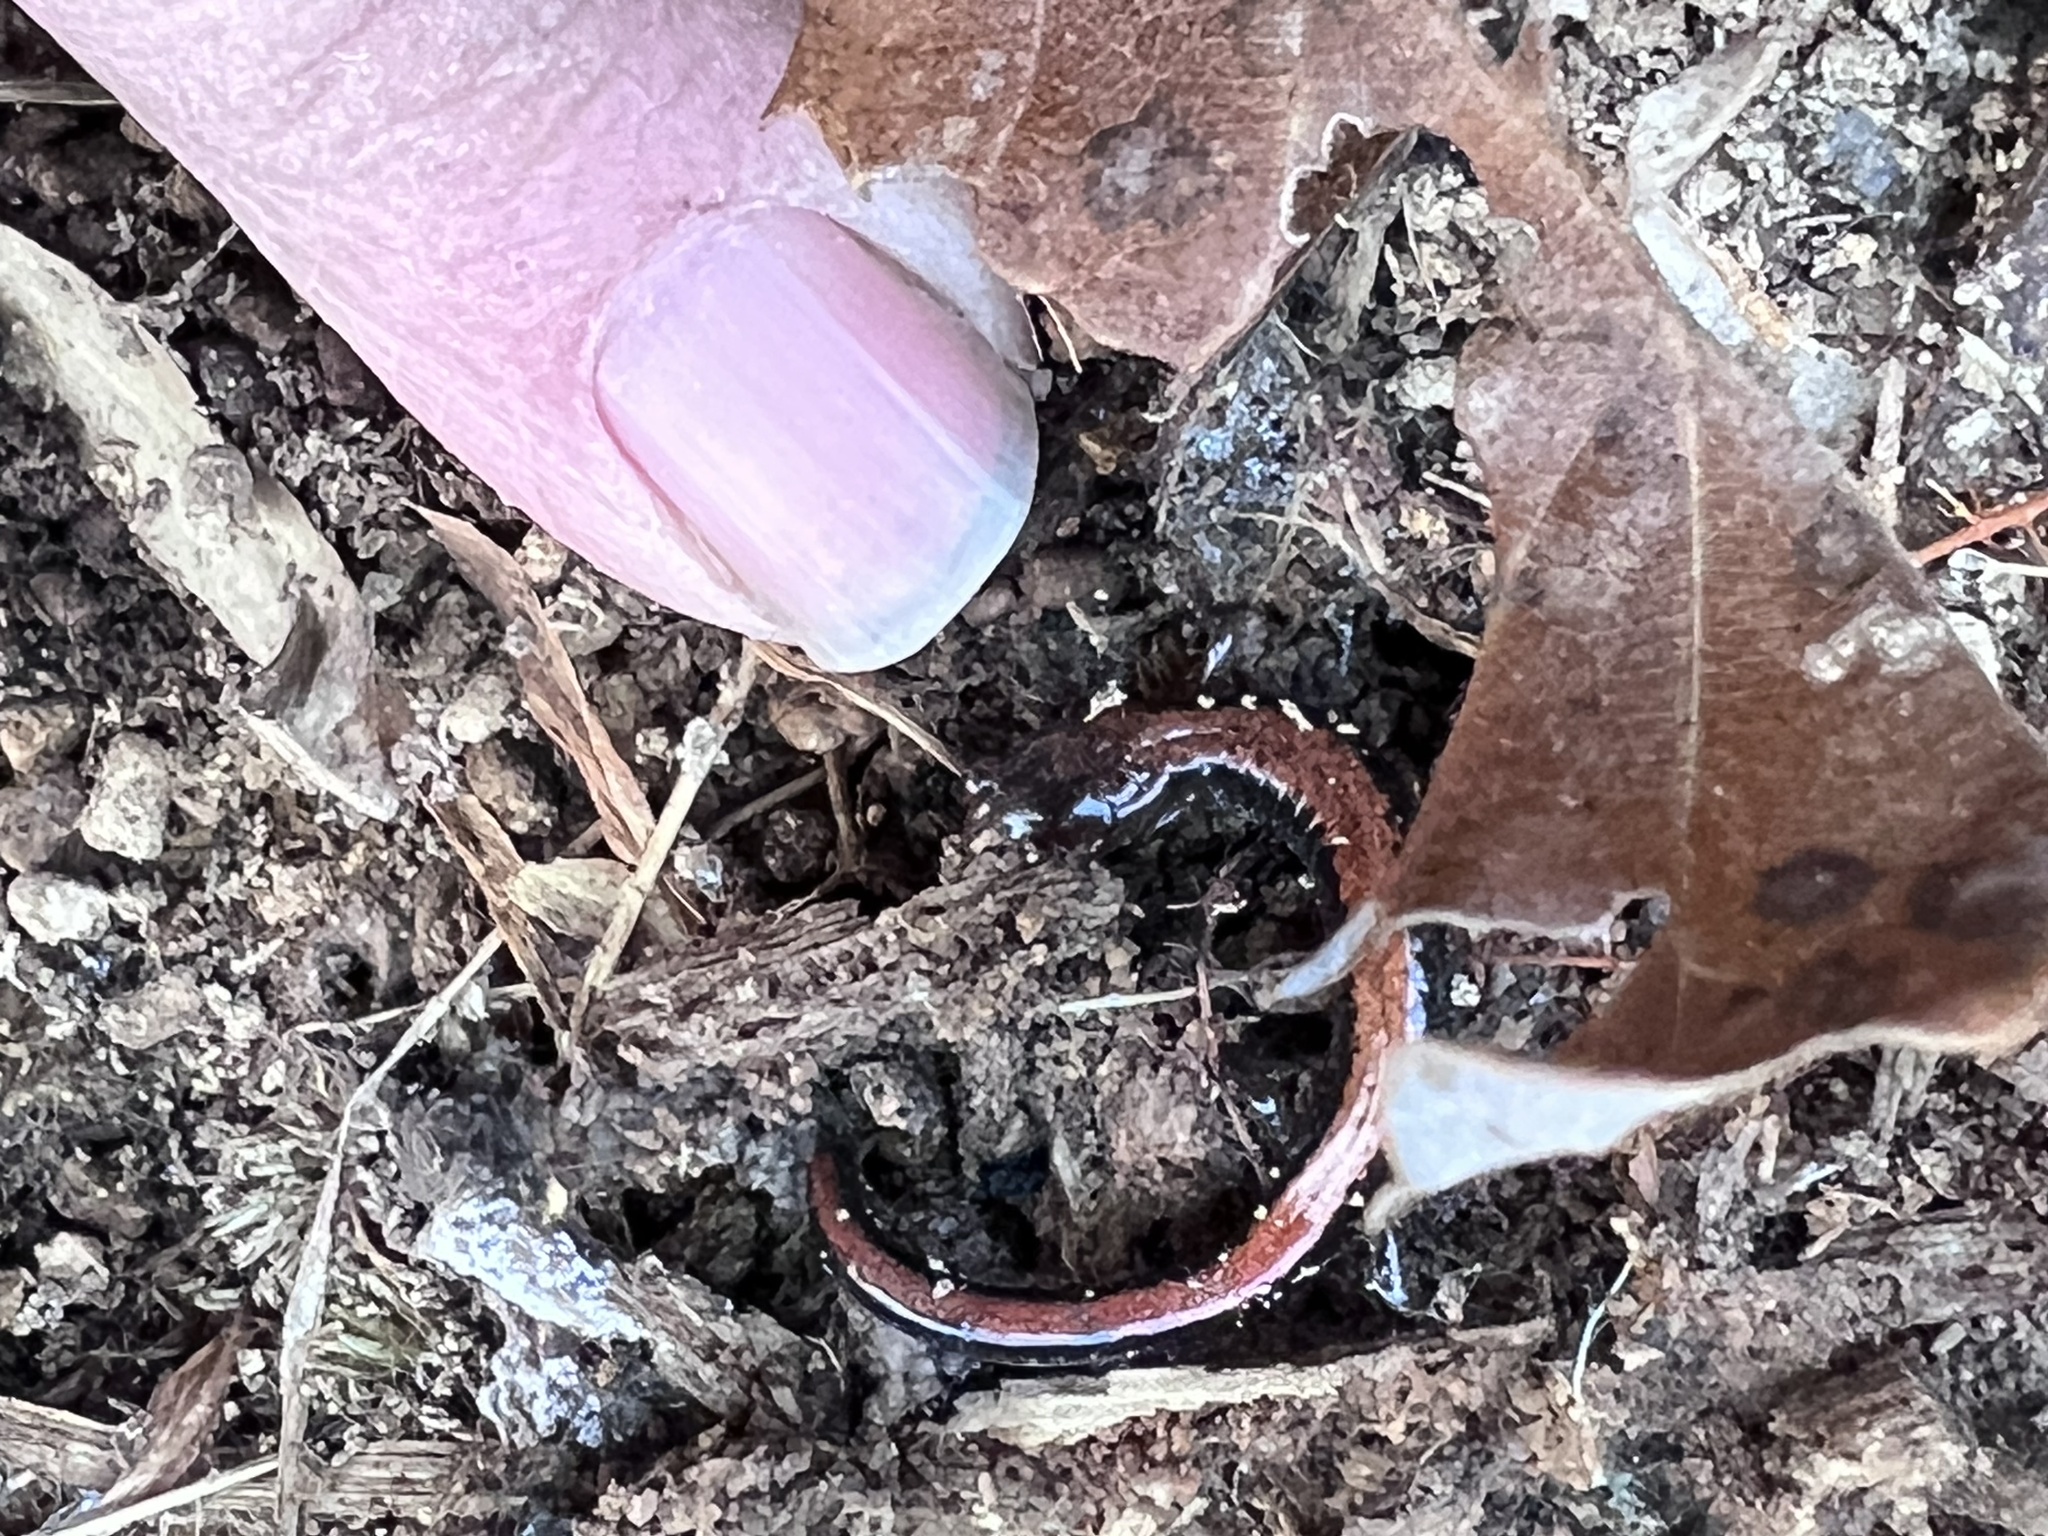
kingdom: Animalia
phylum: Chordata
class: Amphibia
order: Caudata
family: Plethodontidae
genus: Plethodon
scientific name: Plethodon cinereus
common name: Redback salamander
